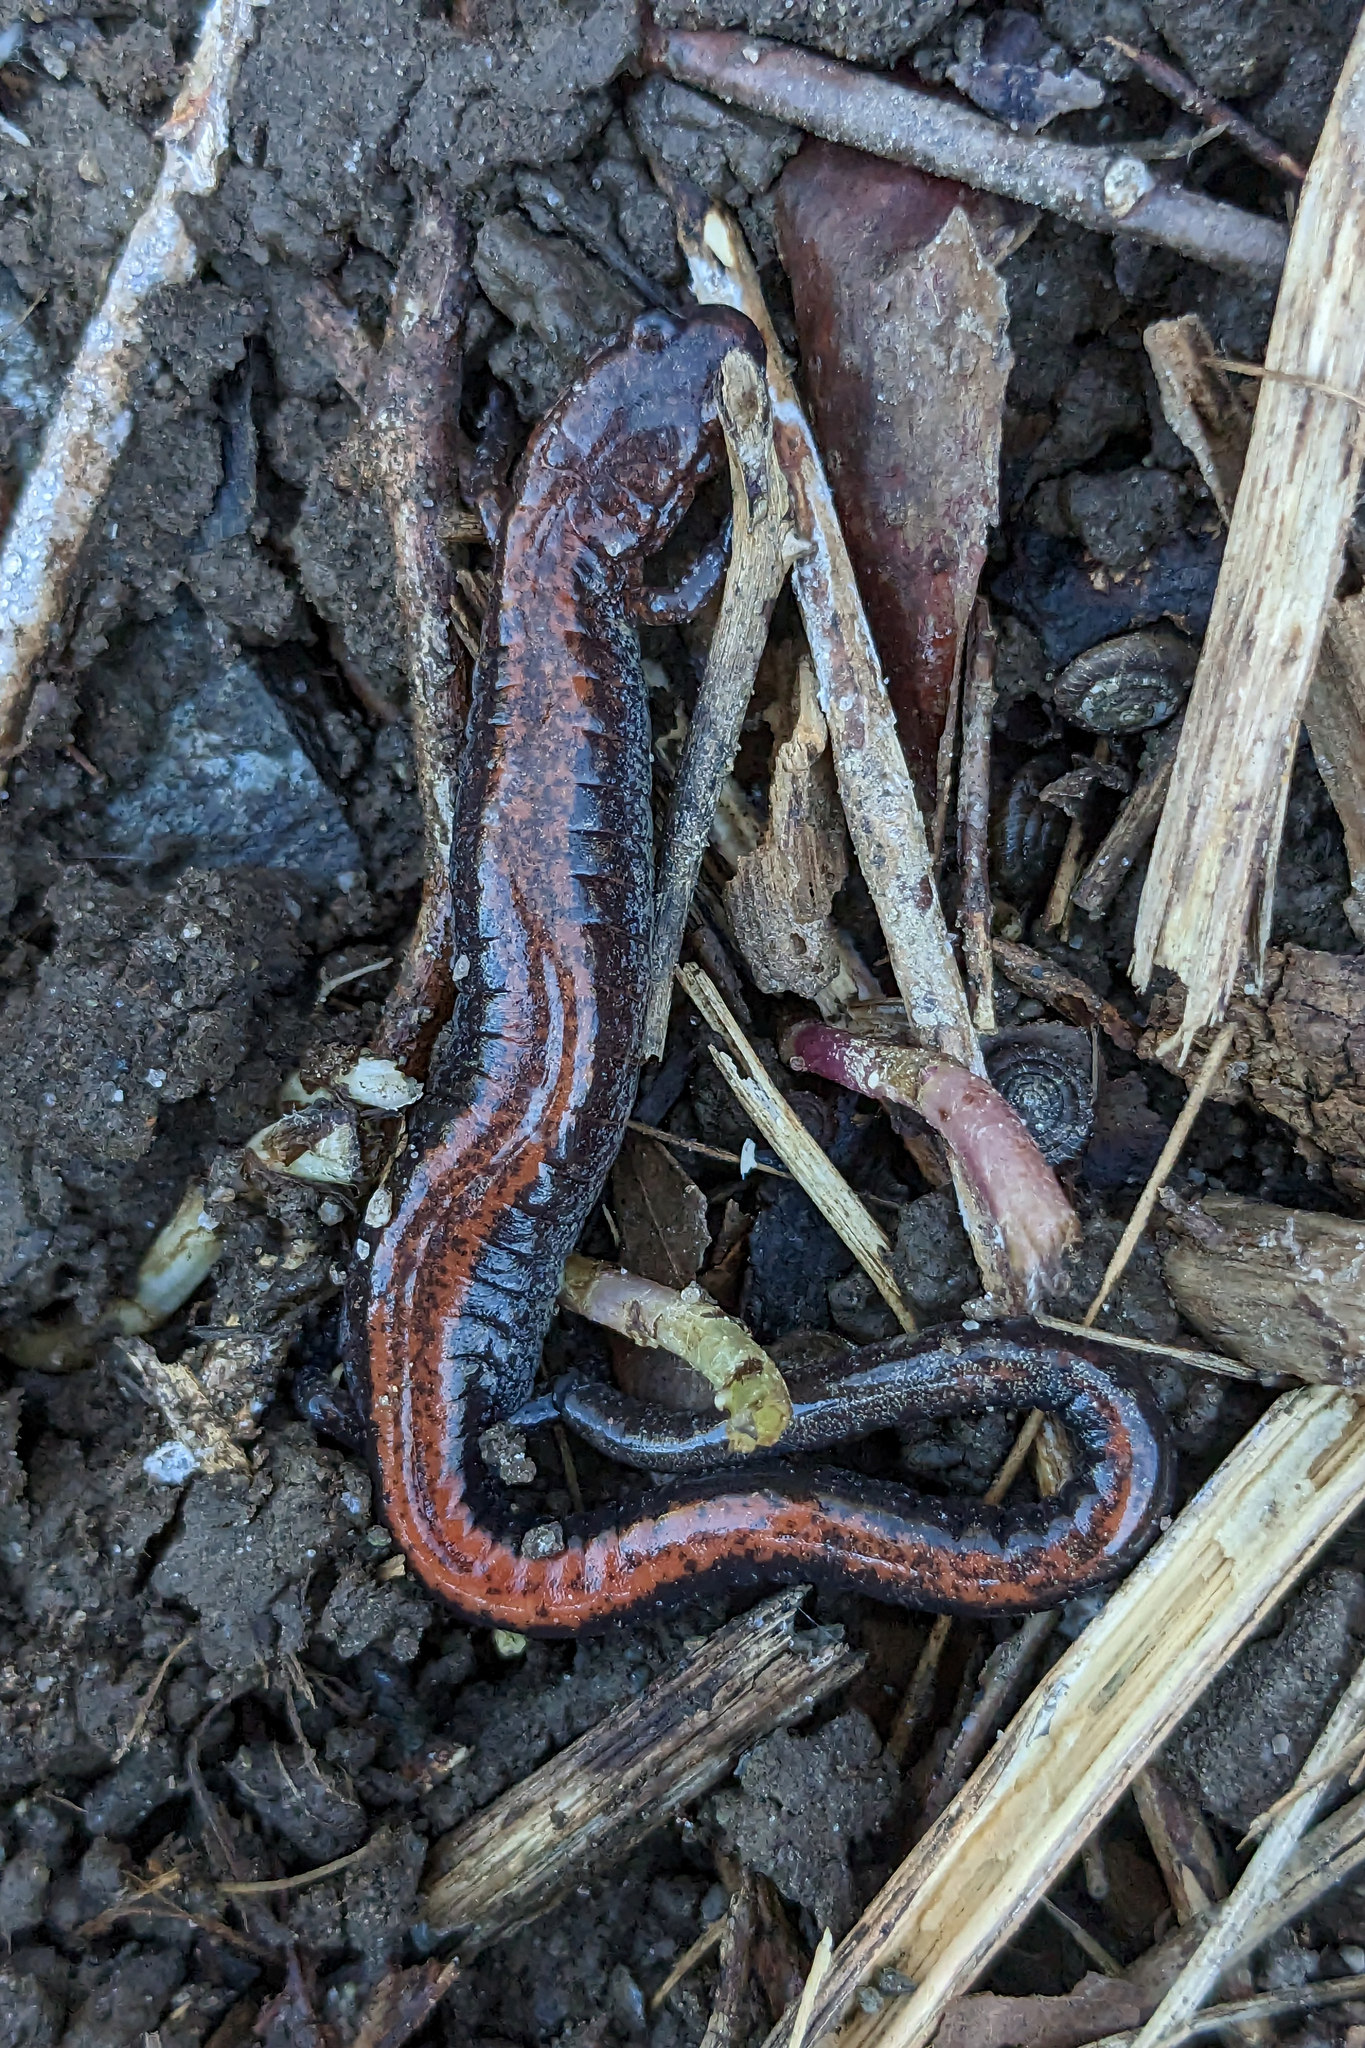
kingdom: Animalia
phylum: Chordata
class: Amphibia
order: Caudata
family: Plethodontidae
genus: Plethodon
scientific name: Plethodon cinereus
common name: Redback salamander
